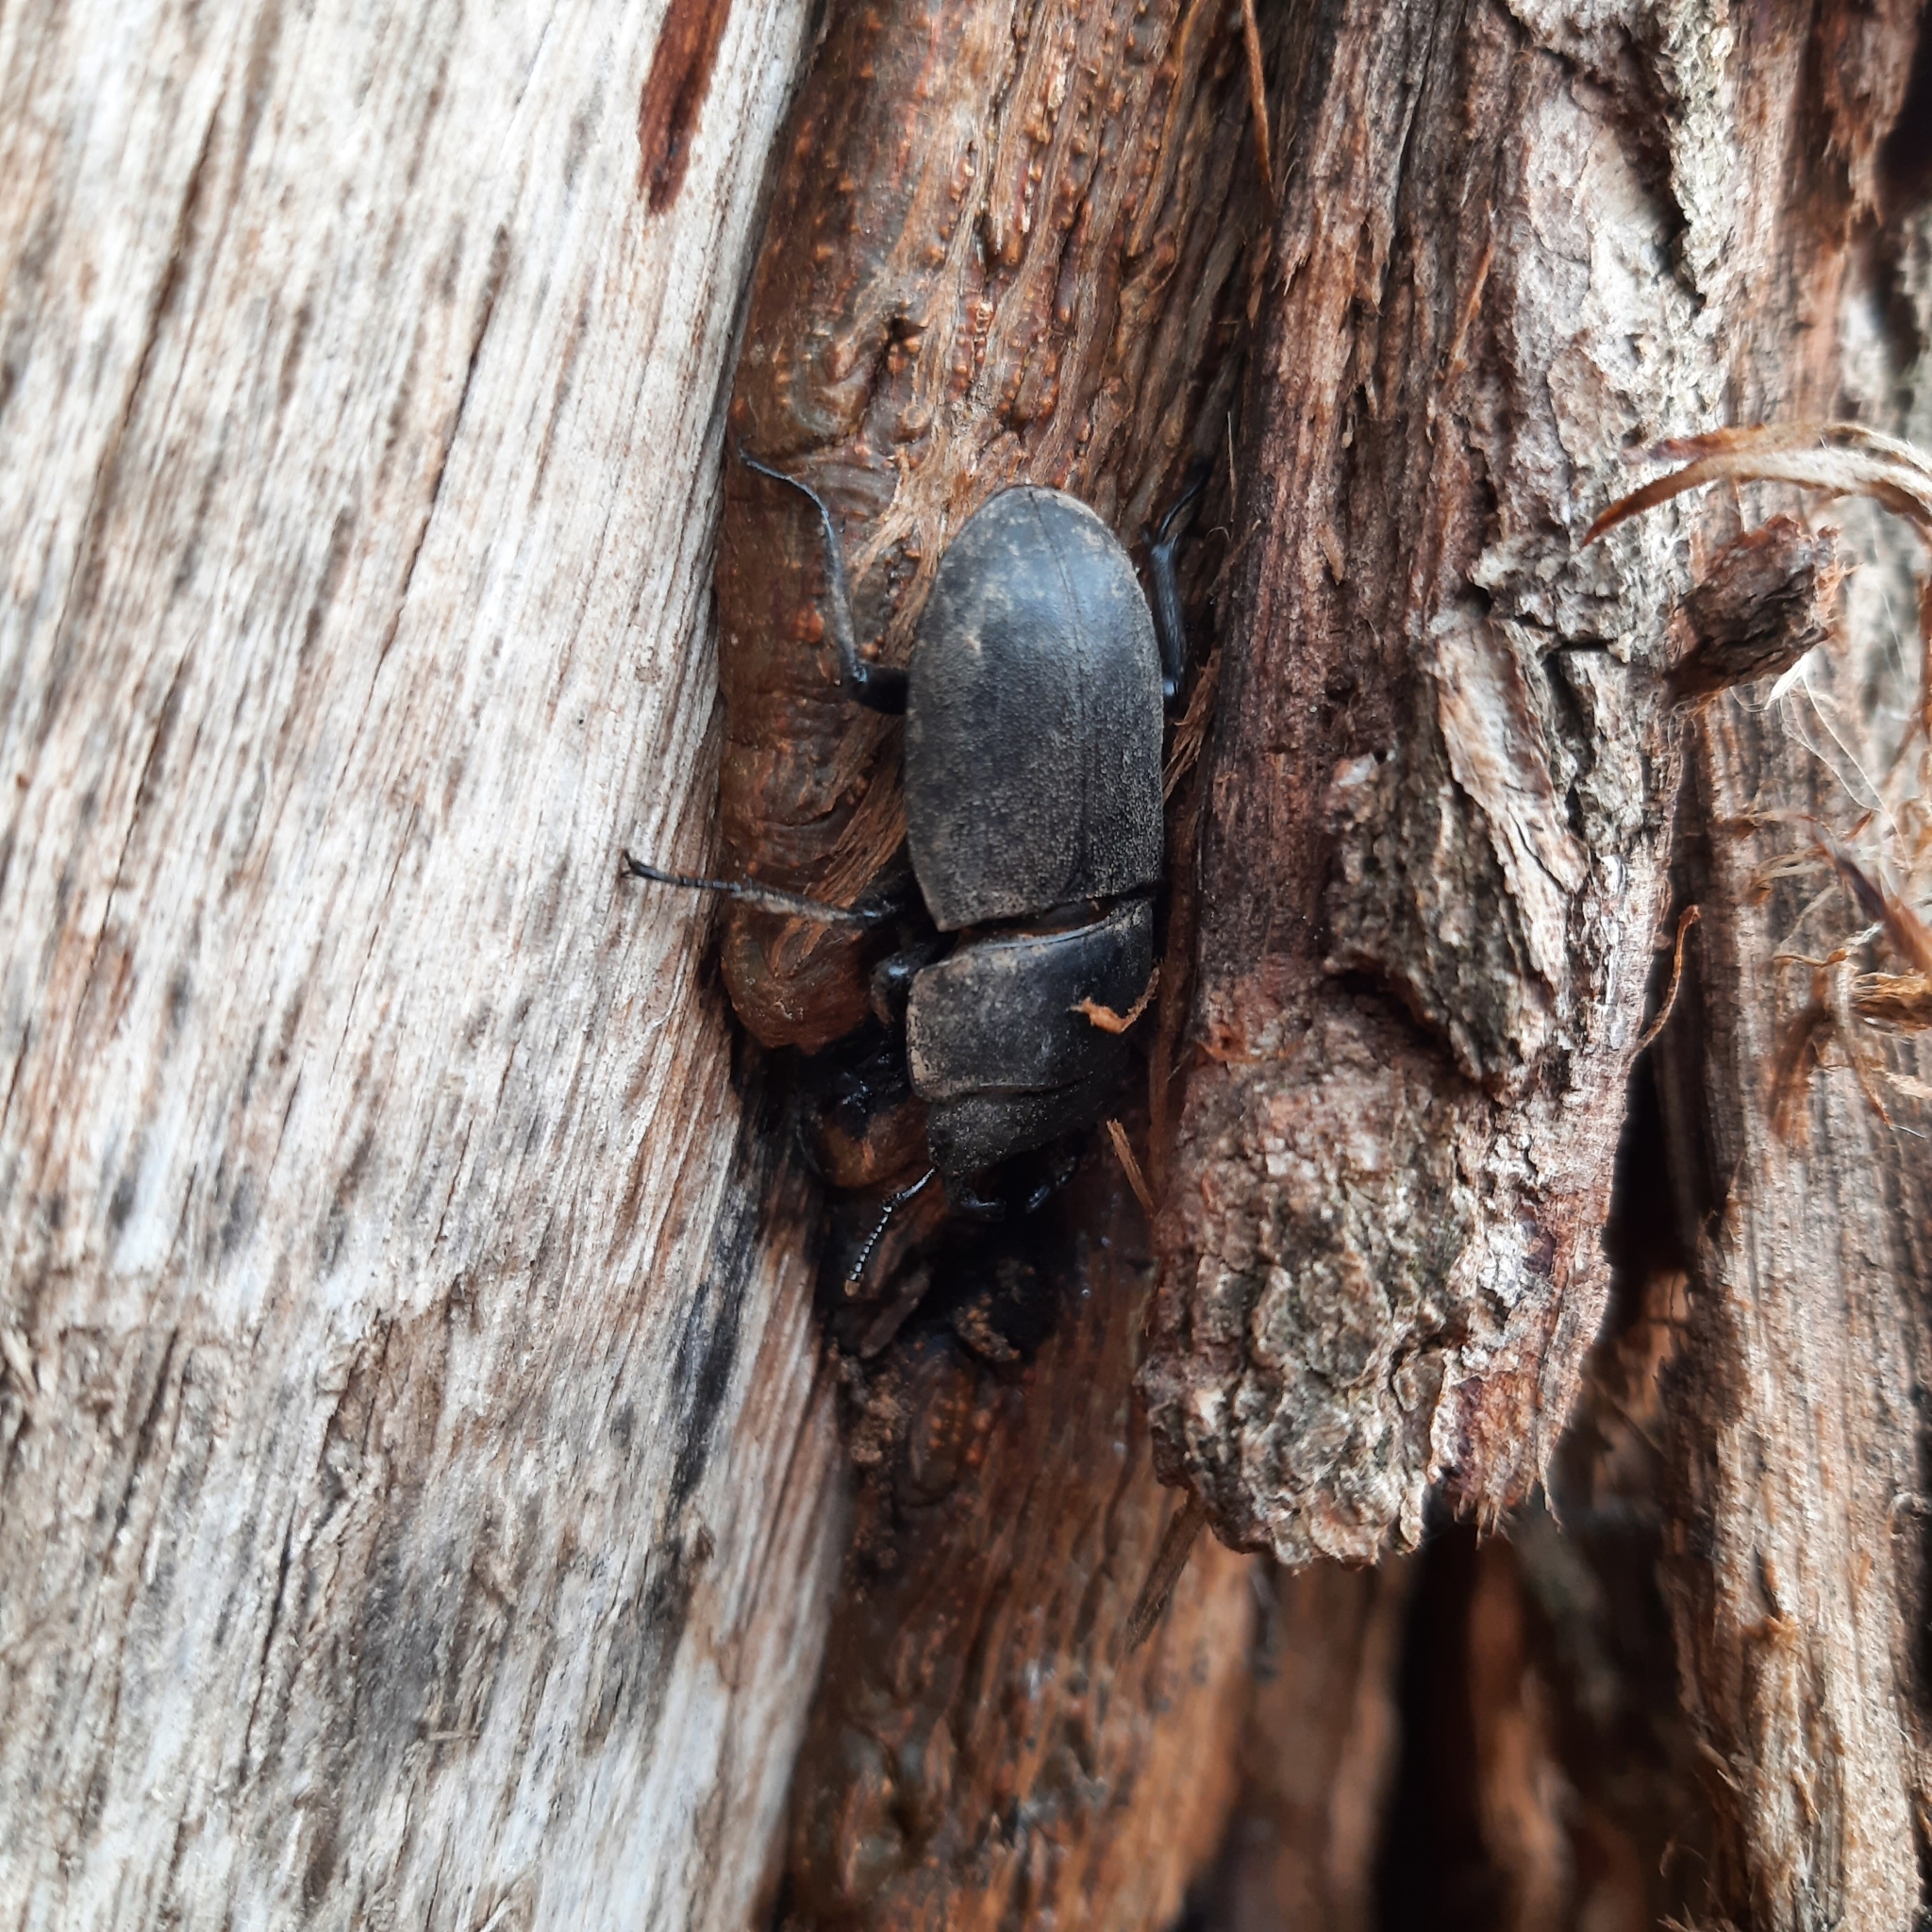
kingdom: Animalia
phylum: Arthropoda
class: Insecta
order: Coleoptera
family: Lucanidae
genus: Dorcus
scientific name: Dorcus parallelipipedus
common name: Lesser stag beetle
